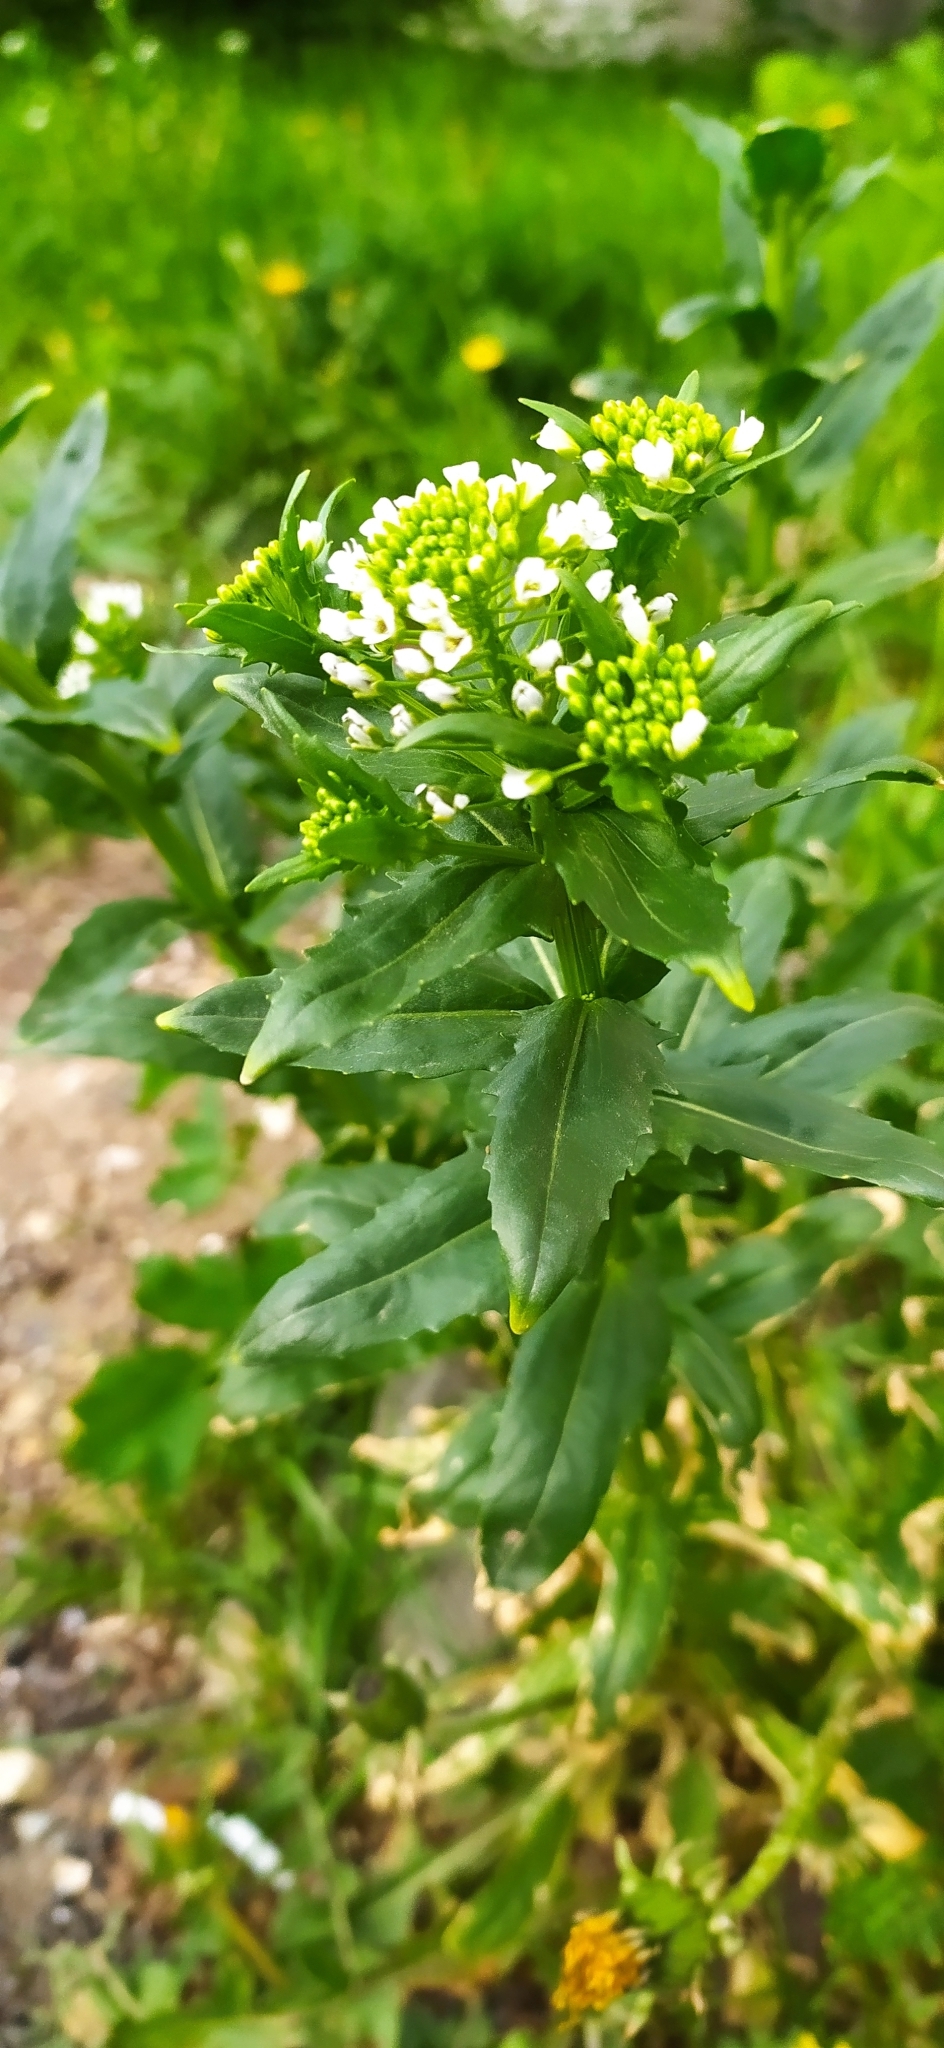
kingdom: Plantae
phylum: Tracheophyta
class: Magnoliopsida
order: Brassicales
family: Brassicaceae
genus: Thlaspi
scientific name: Thlaspi arvense
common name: Field pennycress
